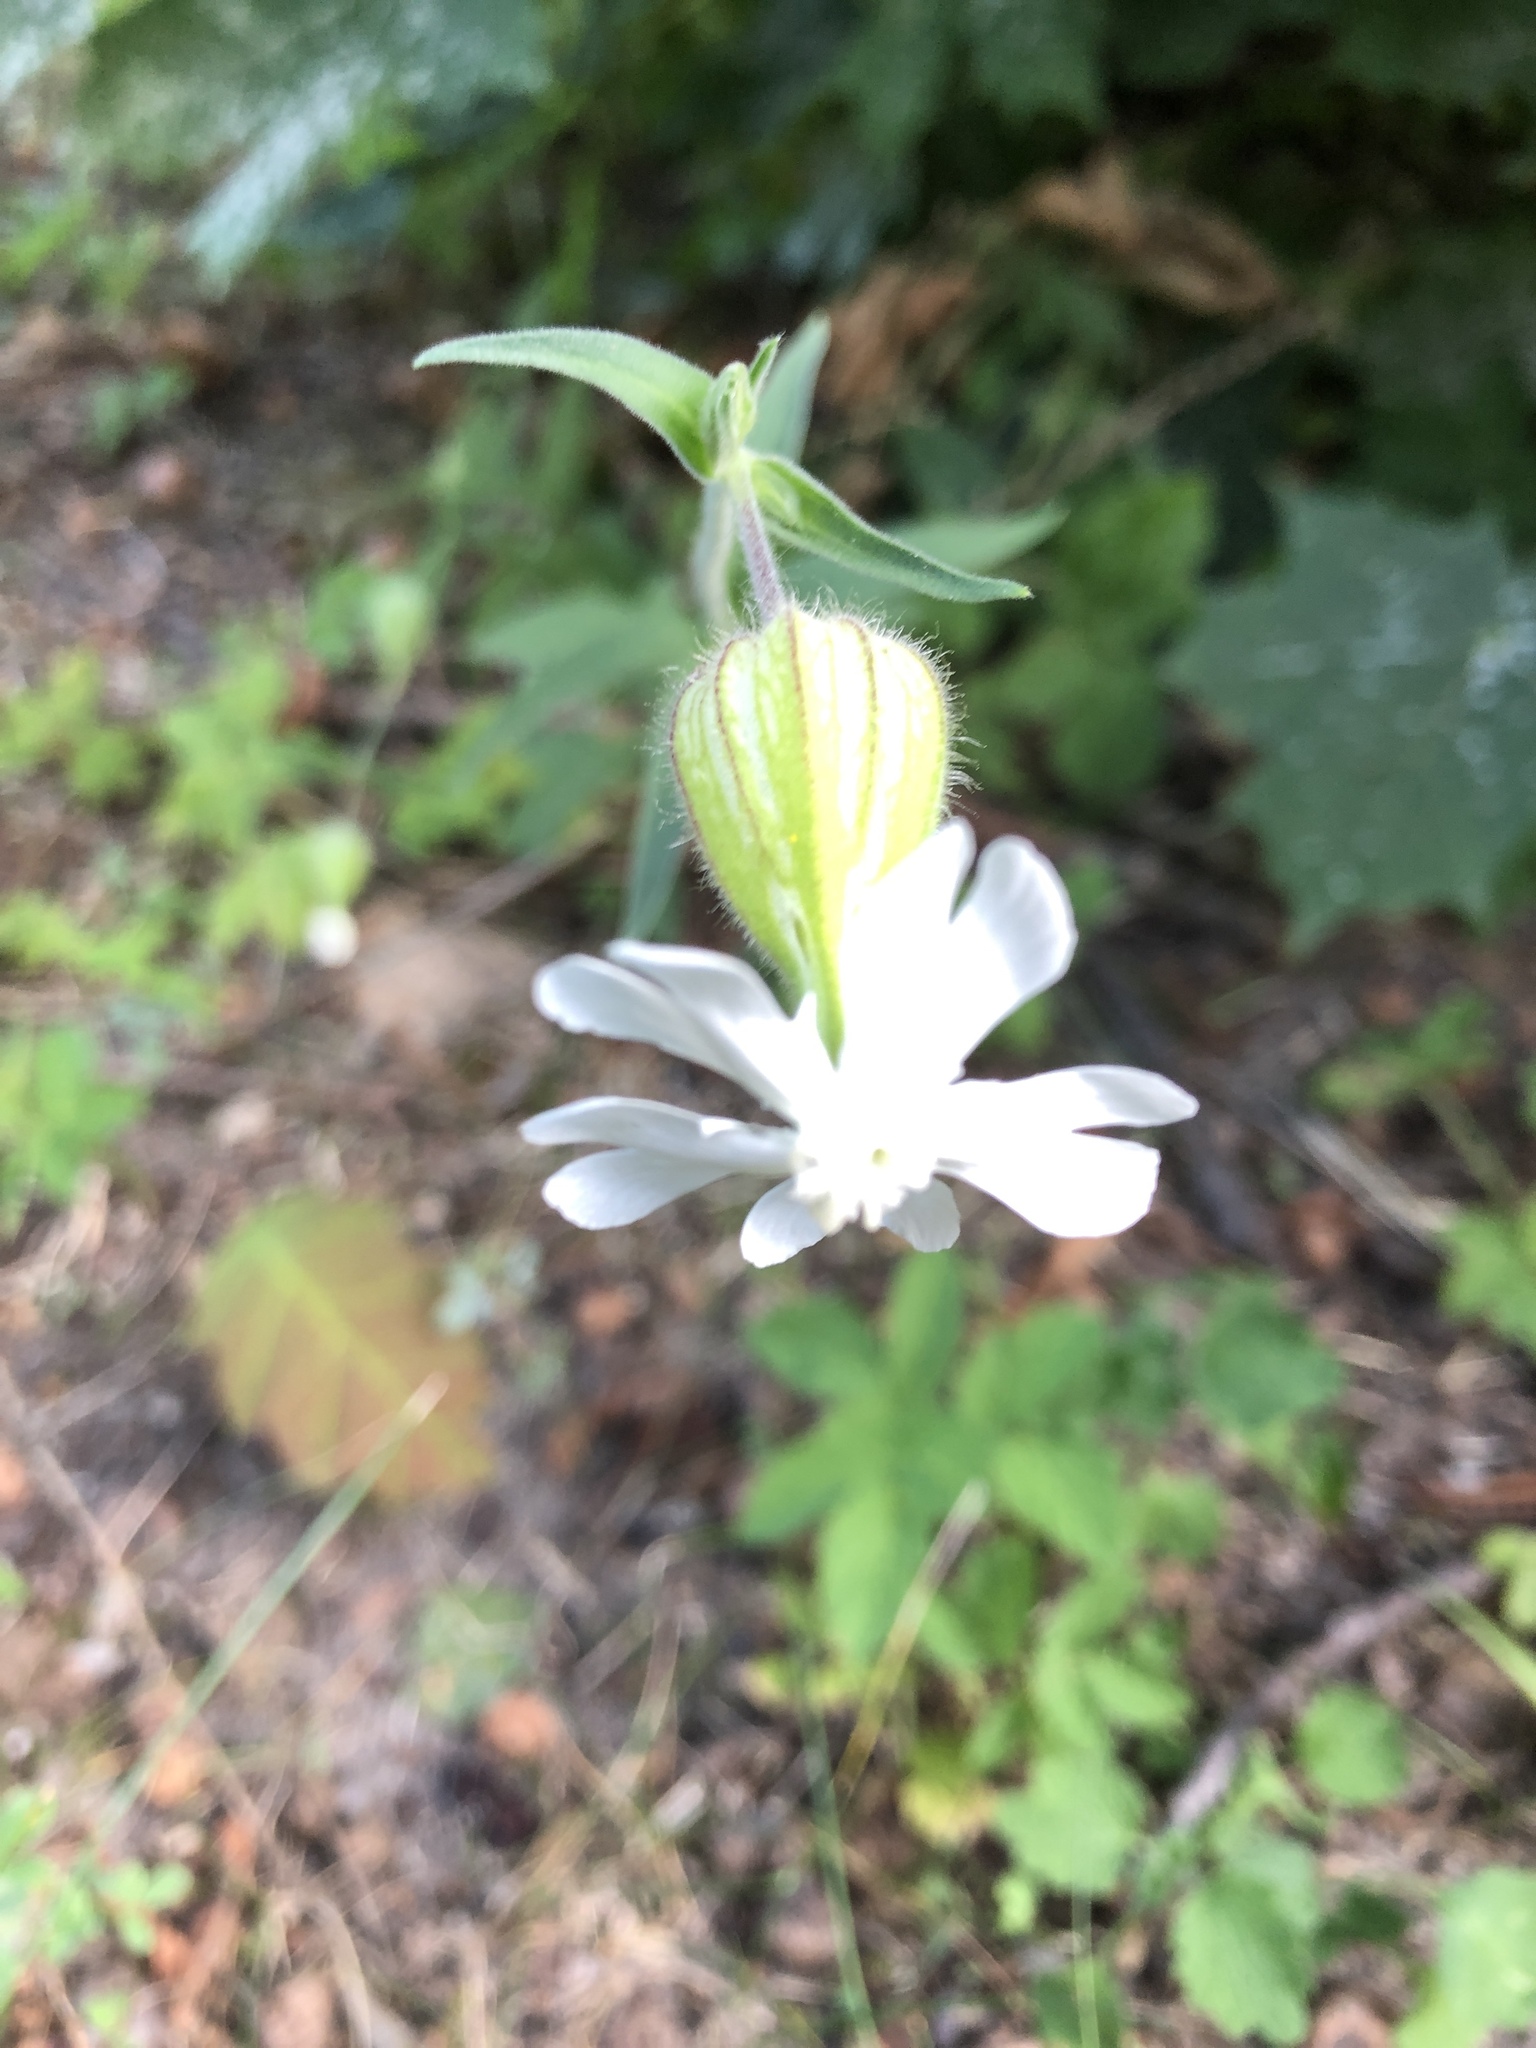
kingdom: Plantae
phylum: Tracheophyta
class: Magnoliopsida
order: Caryophyllales
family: Caryophyllaceae
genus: Silene
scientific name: Silene latifolia
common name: White campion
